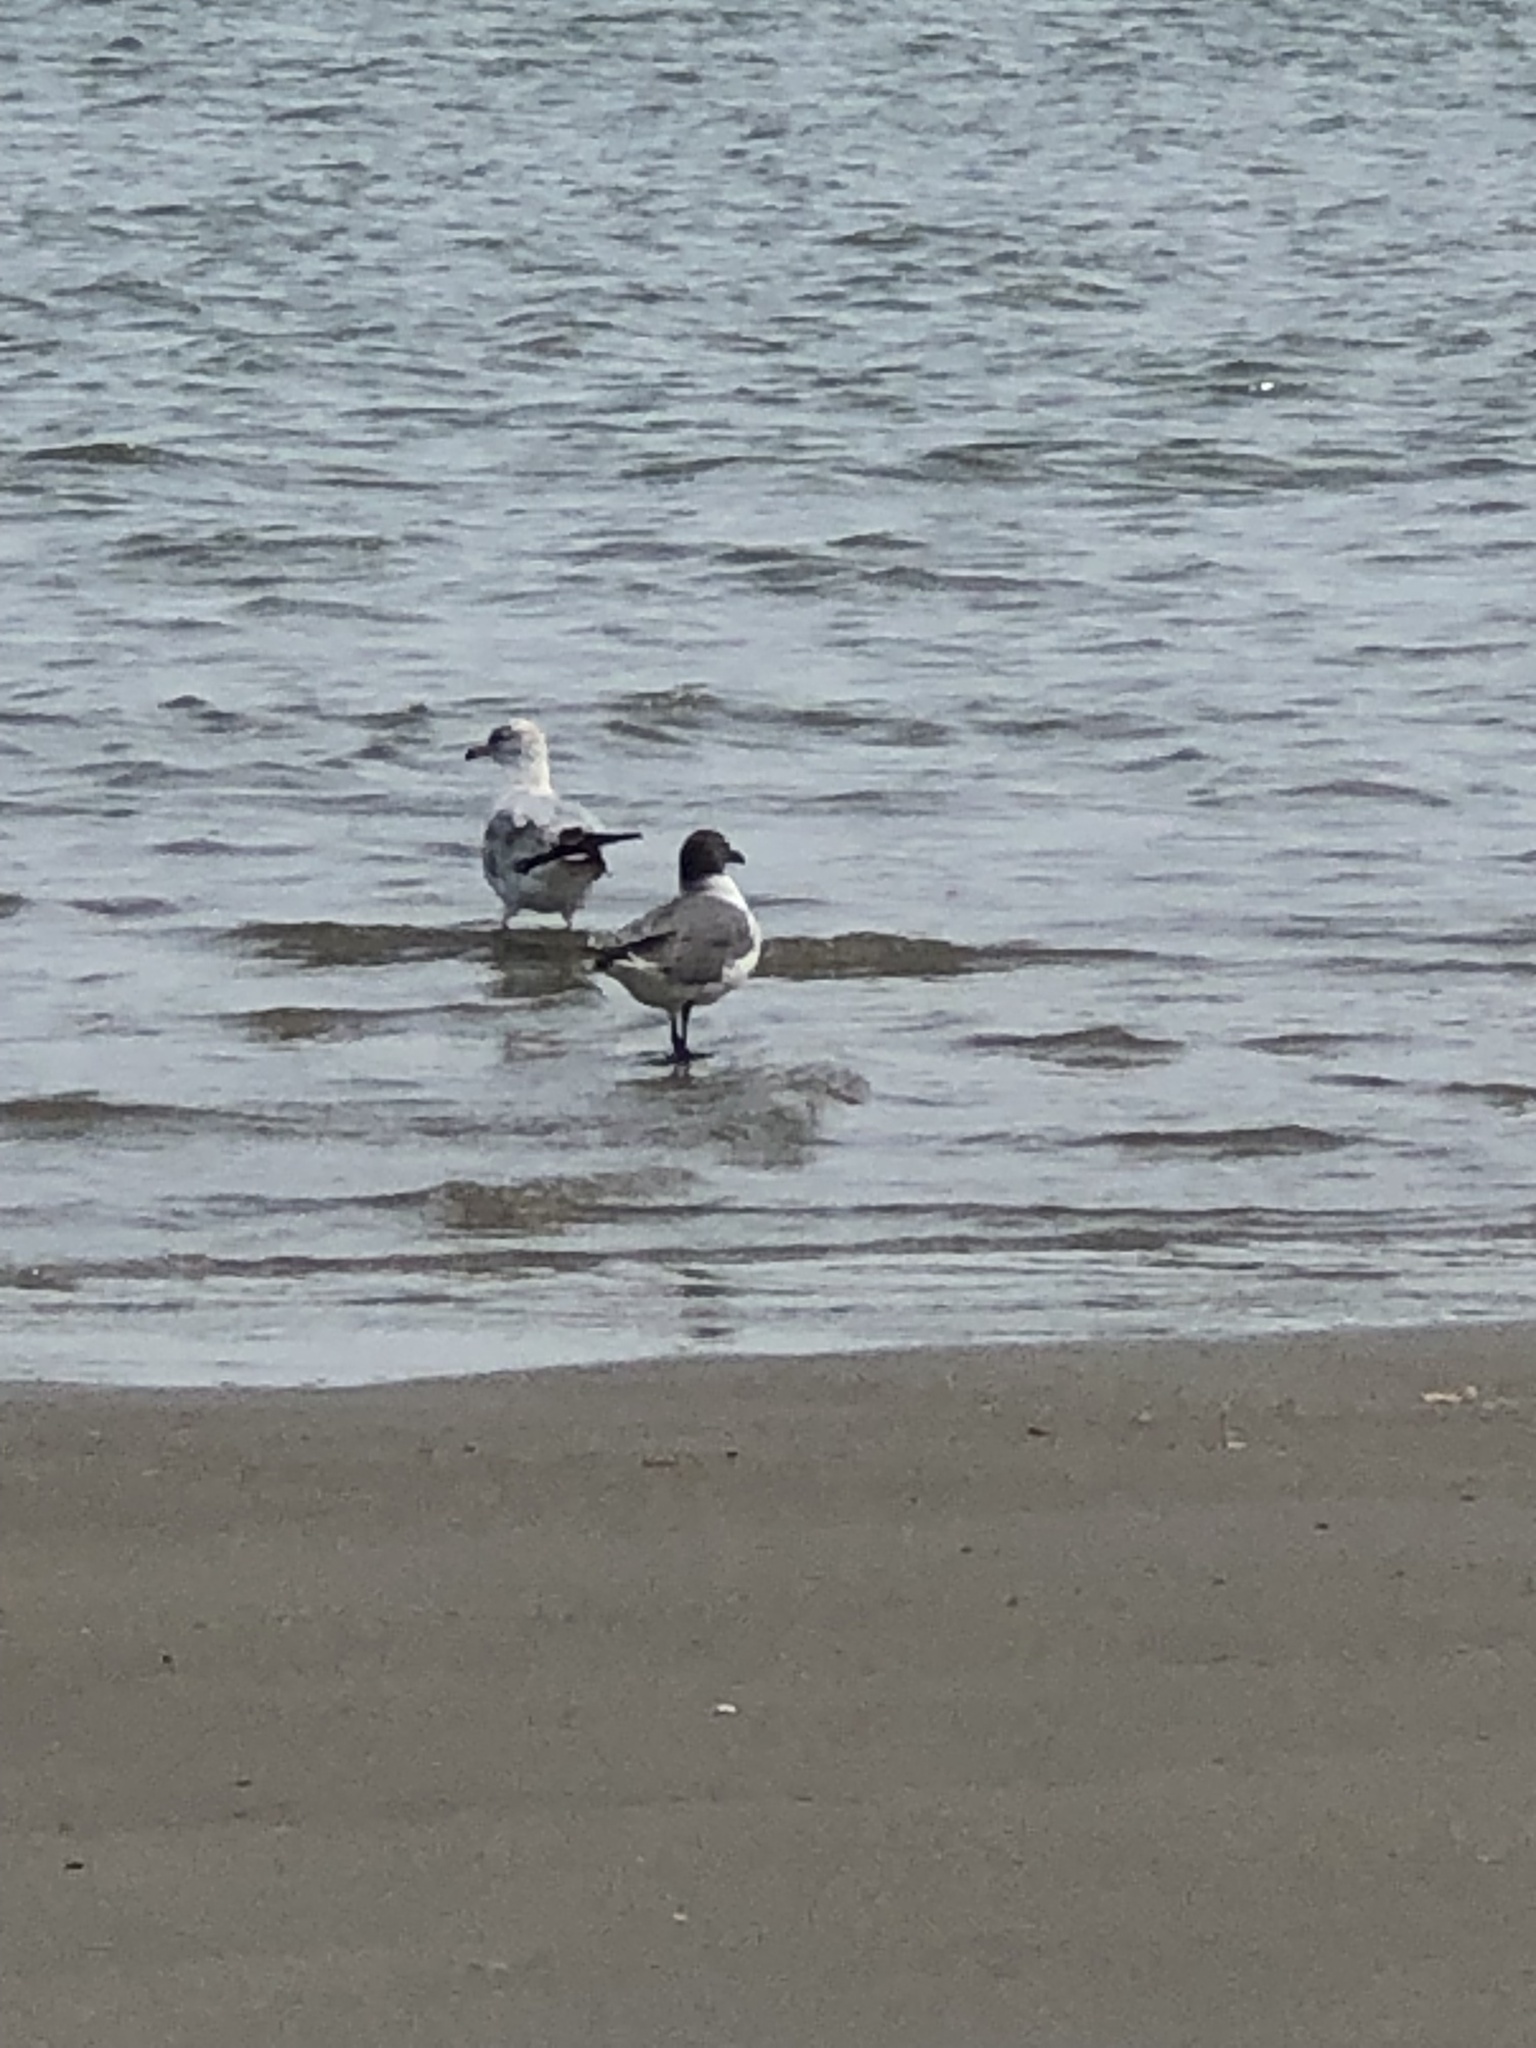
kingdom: Animalia
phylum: Chordata
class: Aves
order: Charadriiformes
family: Laridae
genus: Leucophaeus
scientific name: Leucophaeus atricilla
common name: Laughing gull
